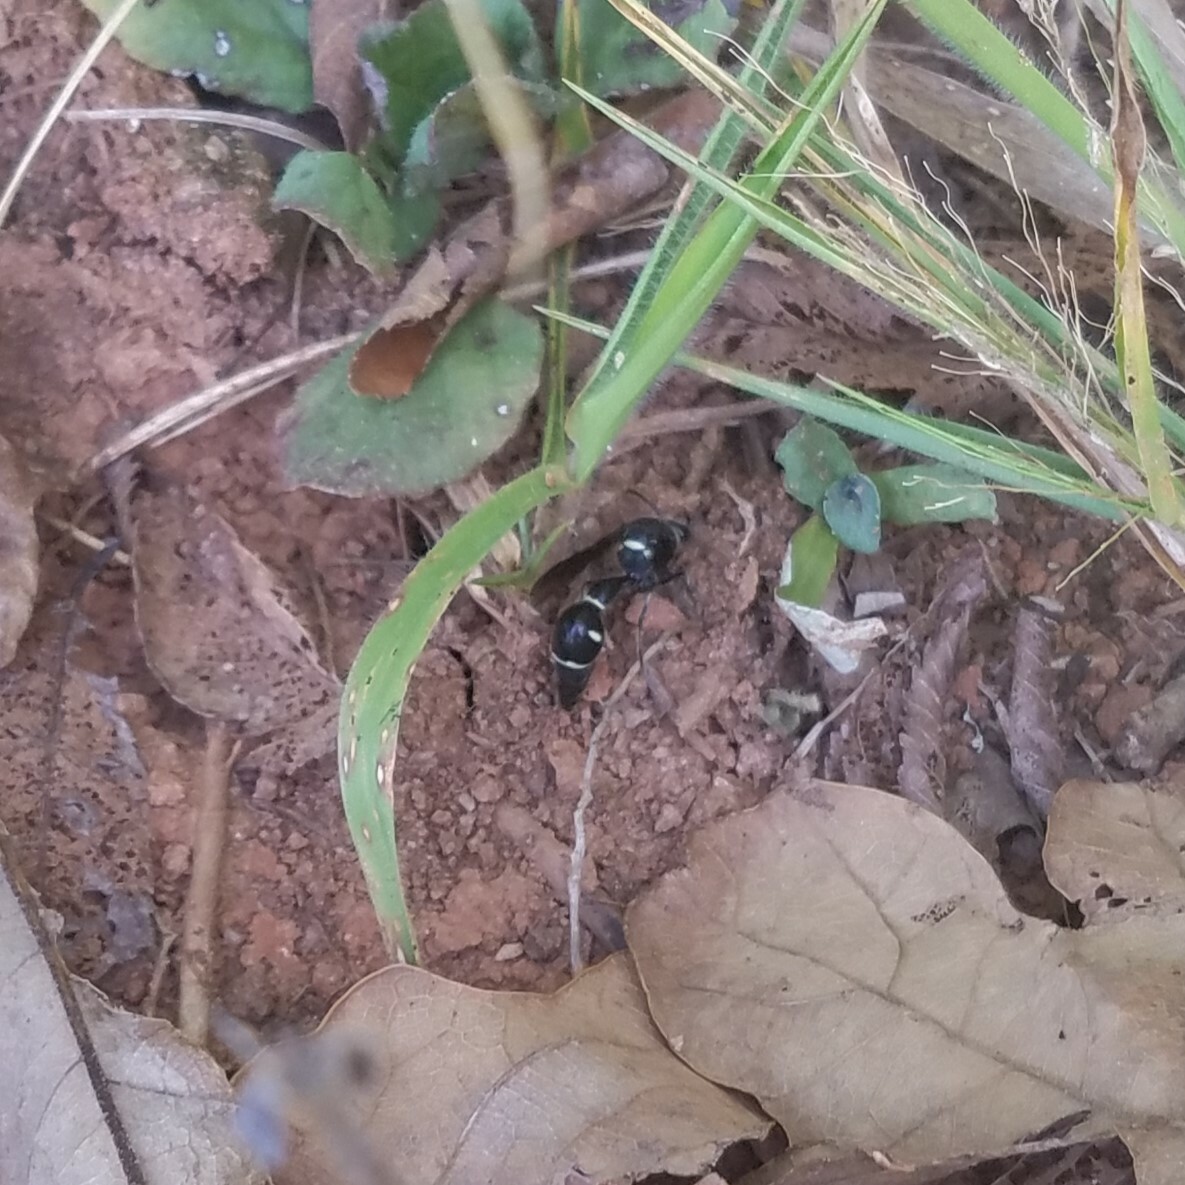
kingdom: Animalia
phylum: Arthropoda
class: Insecta
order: Hymenoptera
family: Vespidae
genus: Eumenes
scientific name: Eumenes fraternus
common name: Fraternal potter wasp
